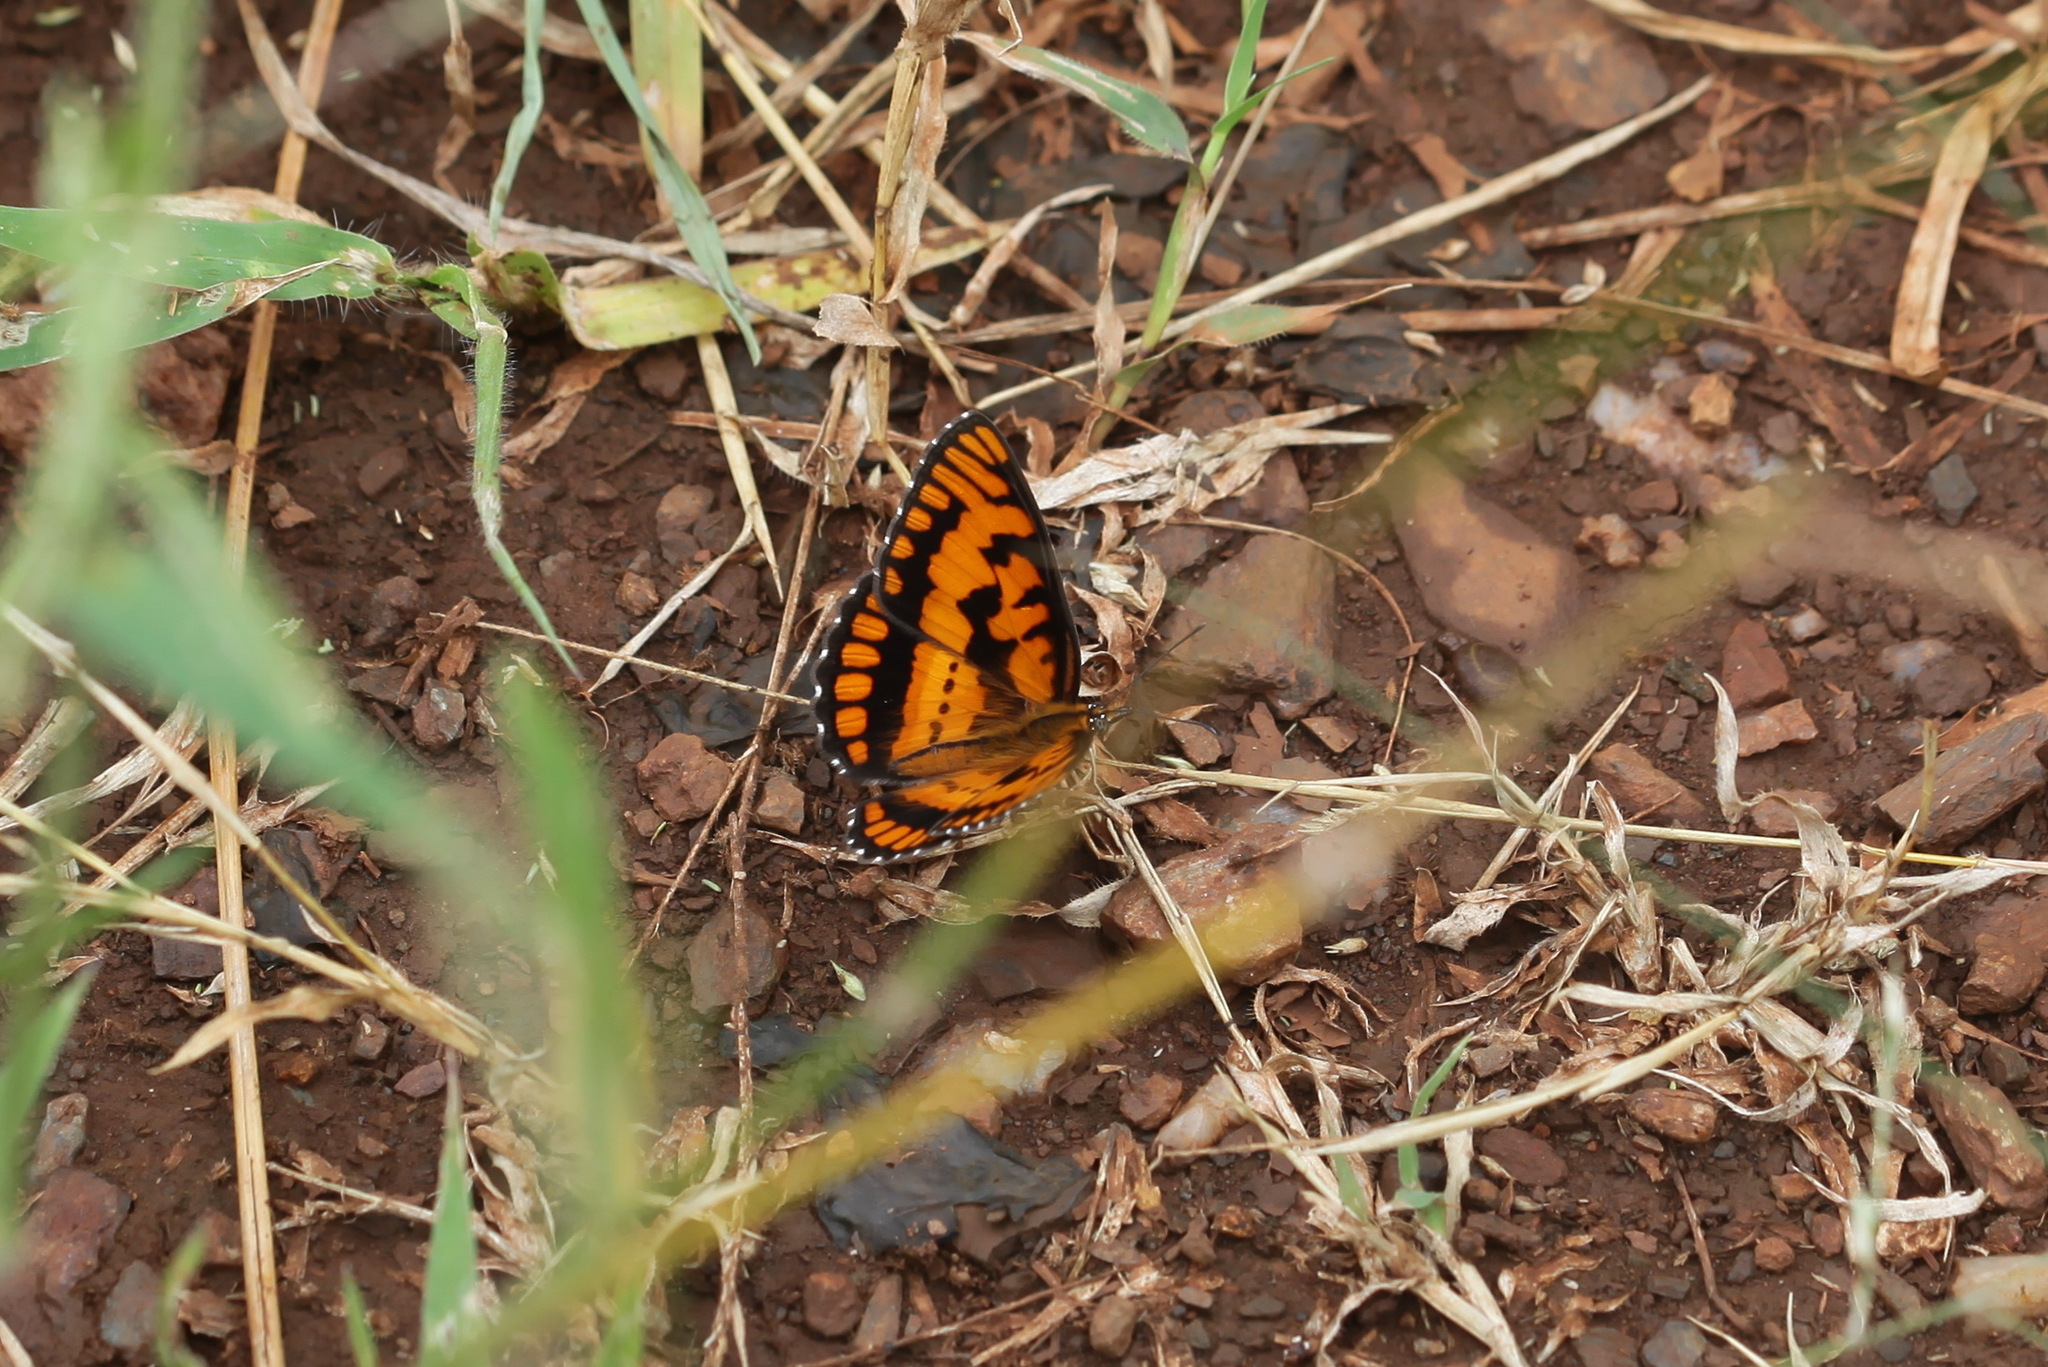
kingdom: Animalia
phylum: Arthropoda
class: Insecta
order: Lepidoptera
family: Nymphalidae
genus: Byblia
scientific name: Byblia ilithyia
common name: Spotted joker
